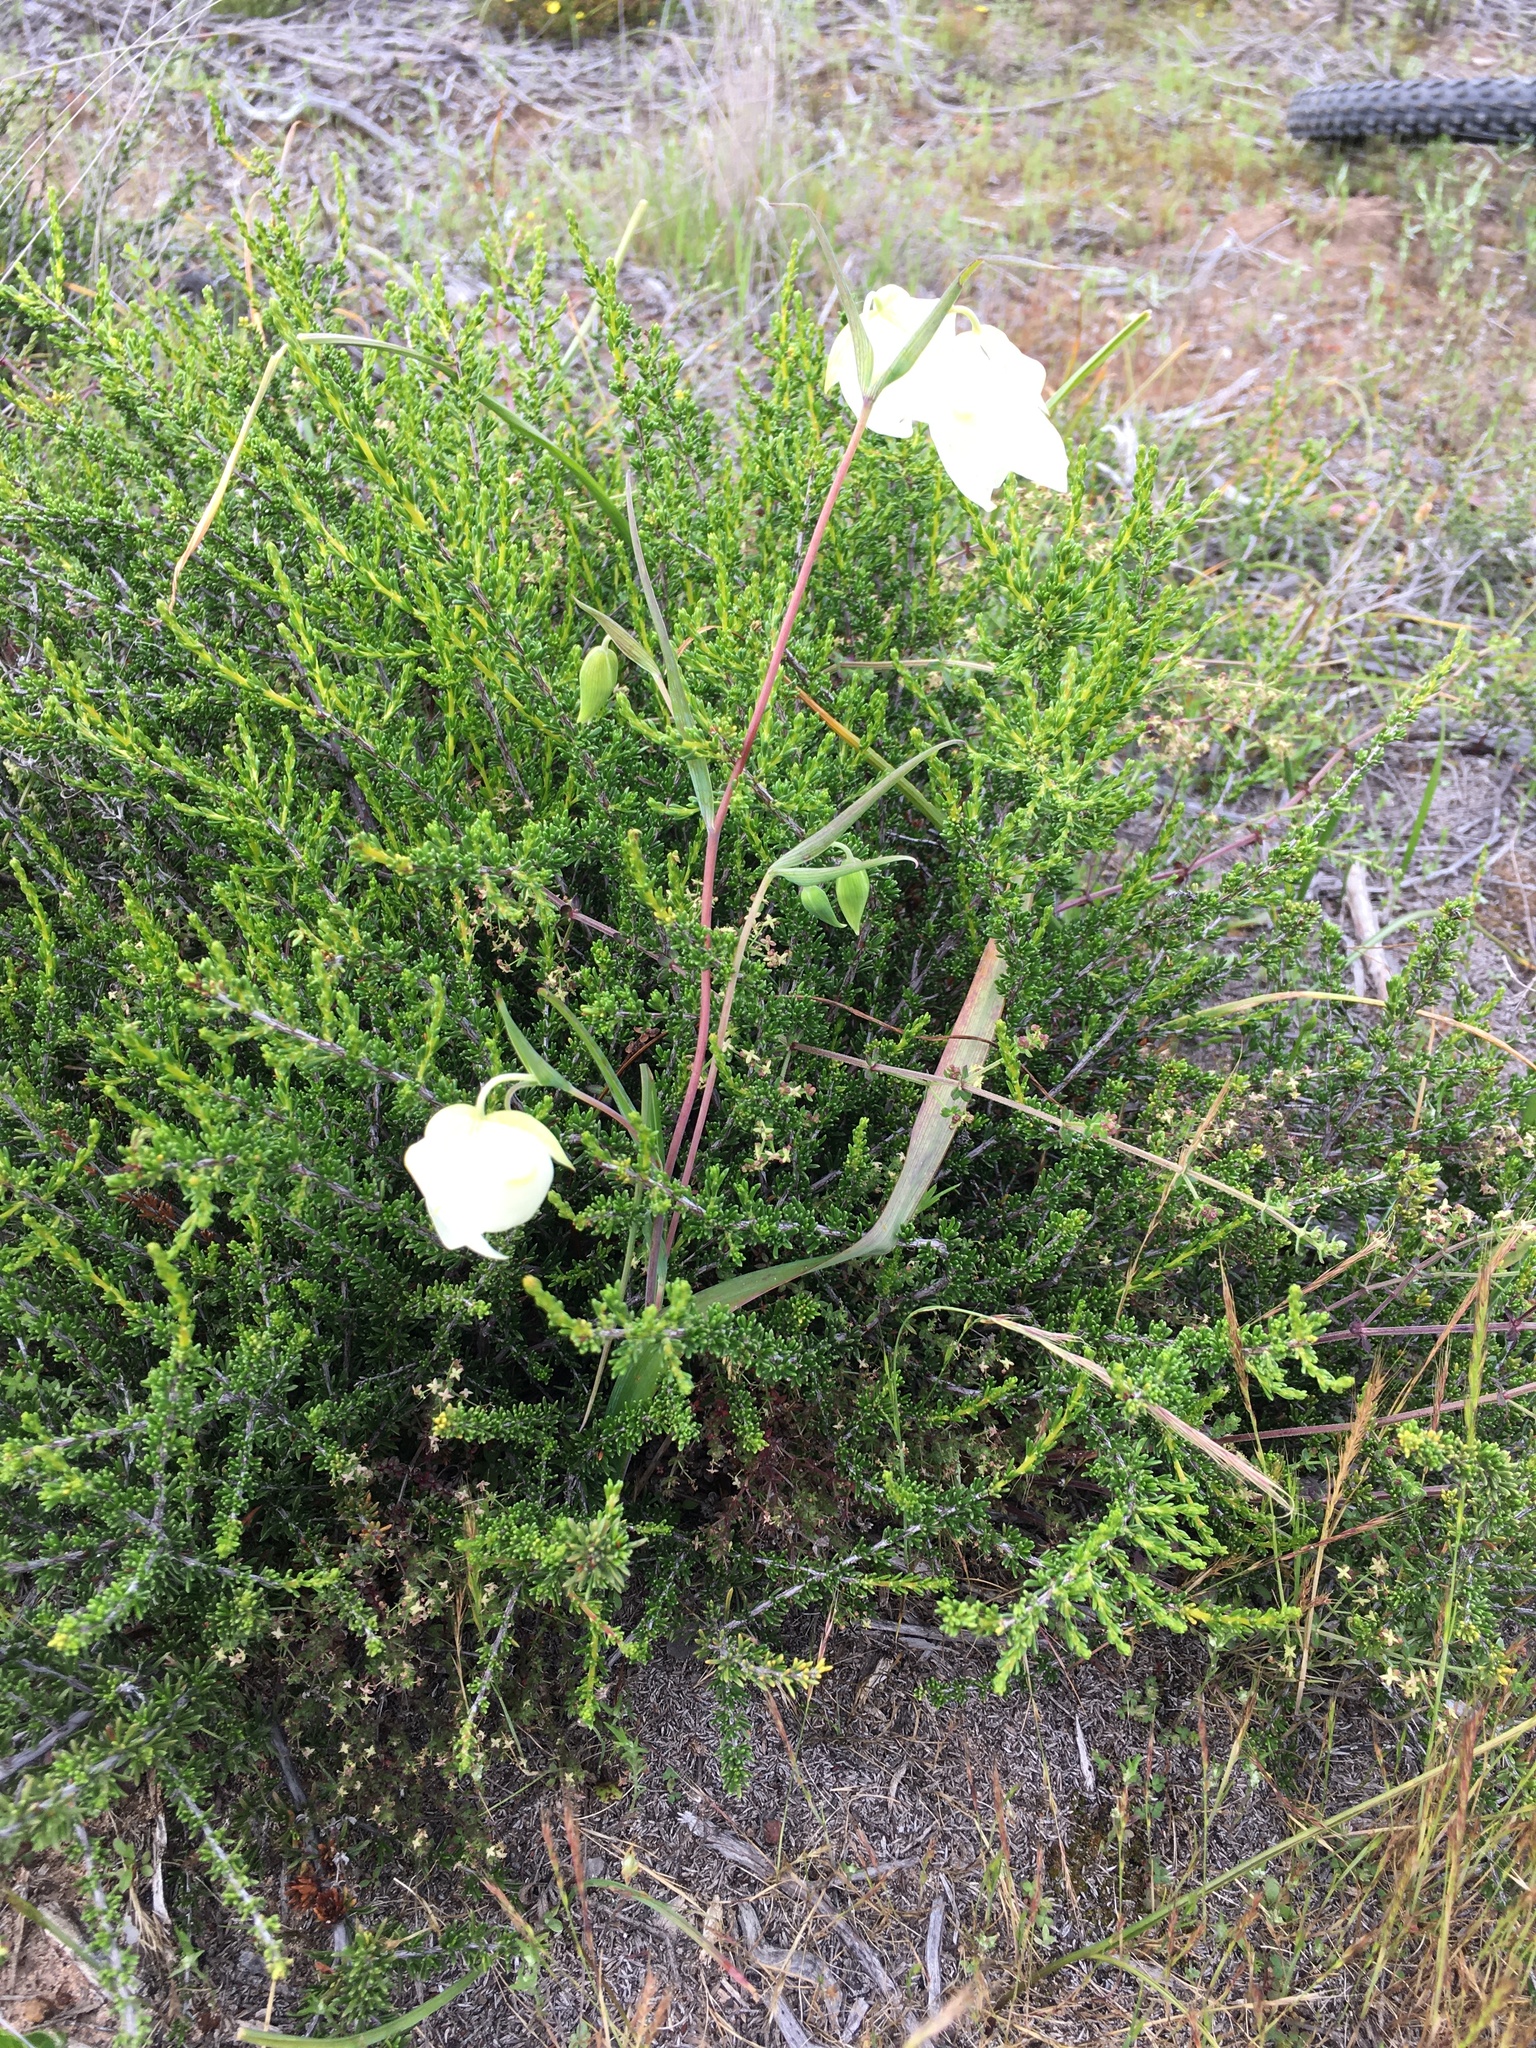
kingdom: Plantae
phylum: Tracheophyta
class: Liliopsida
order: Liliales
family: Liliaceae
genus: Calochortus
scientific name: Calochortus albus
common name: Fairy-lantern
